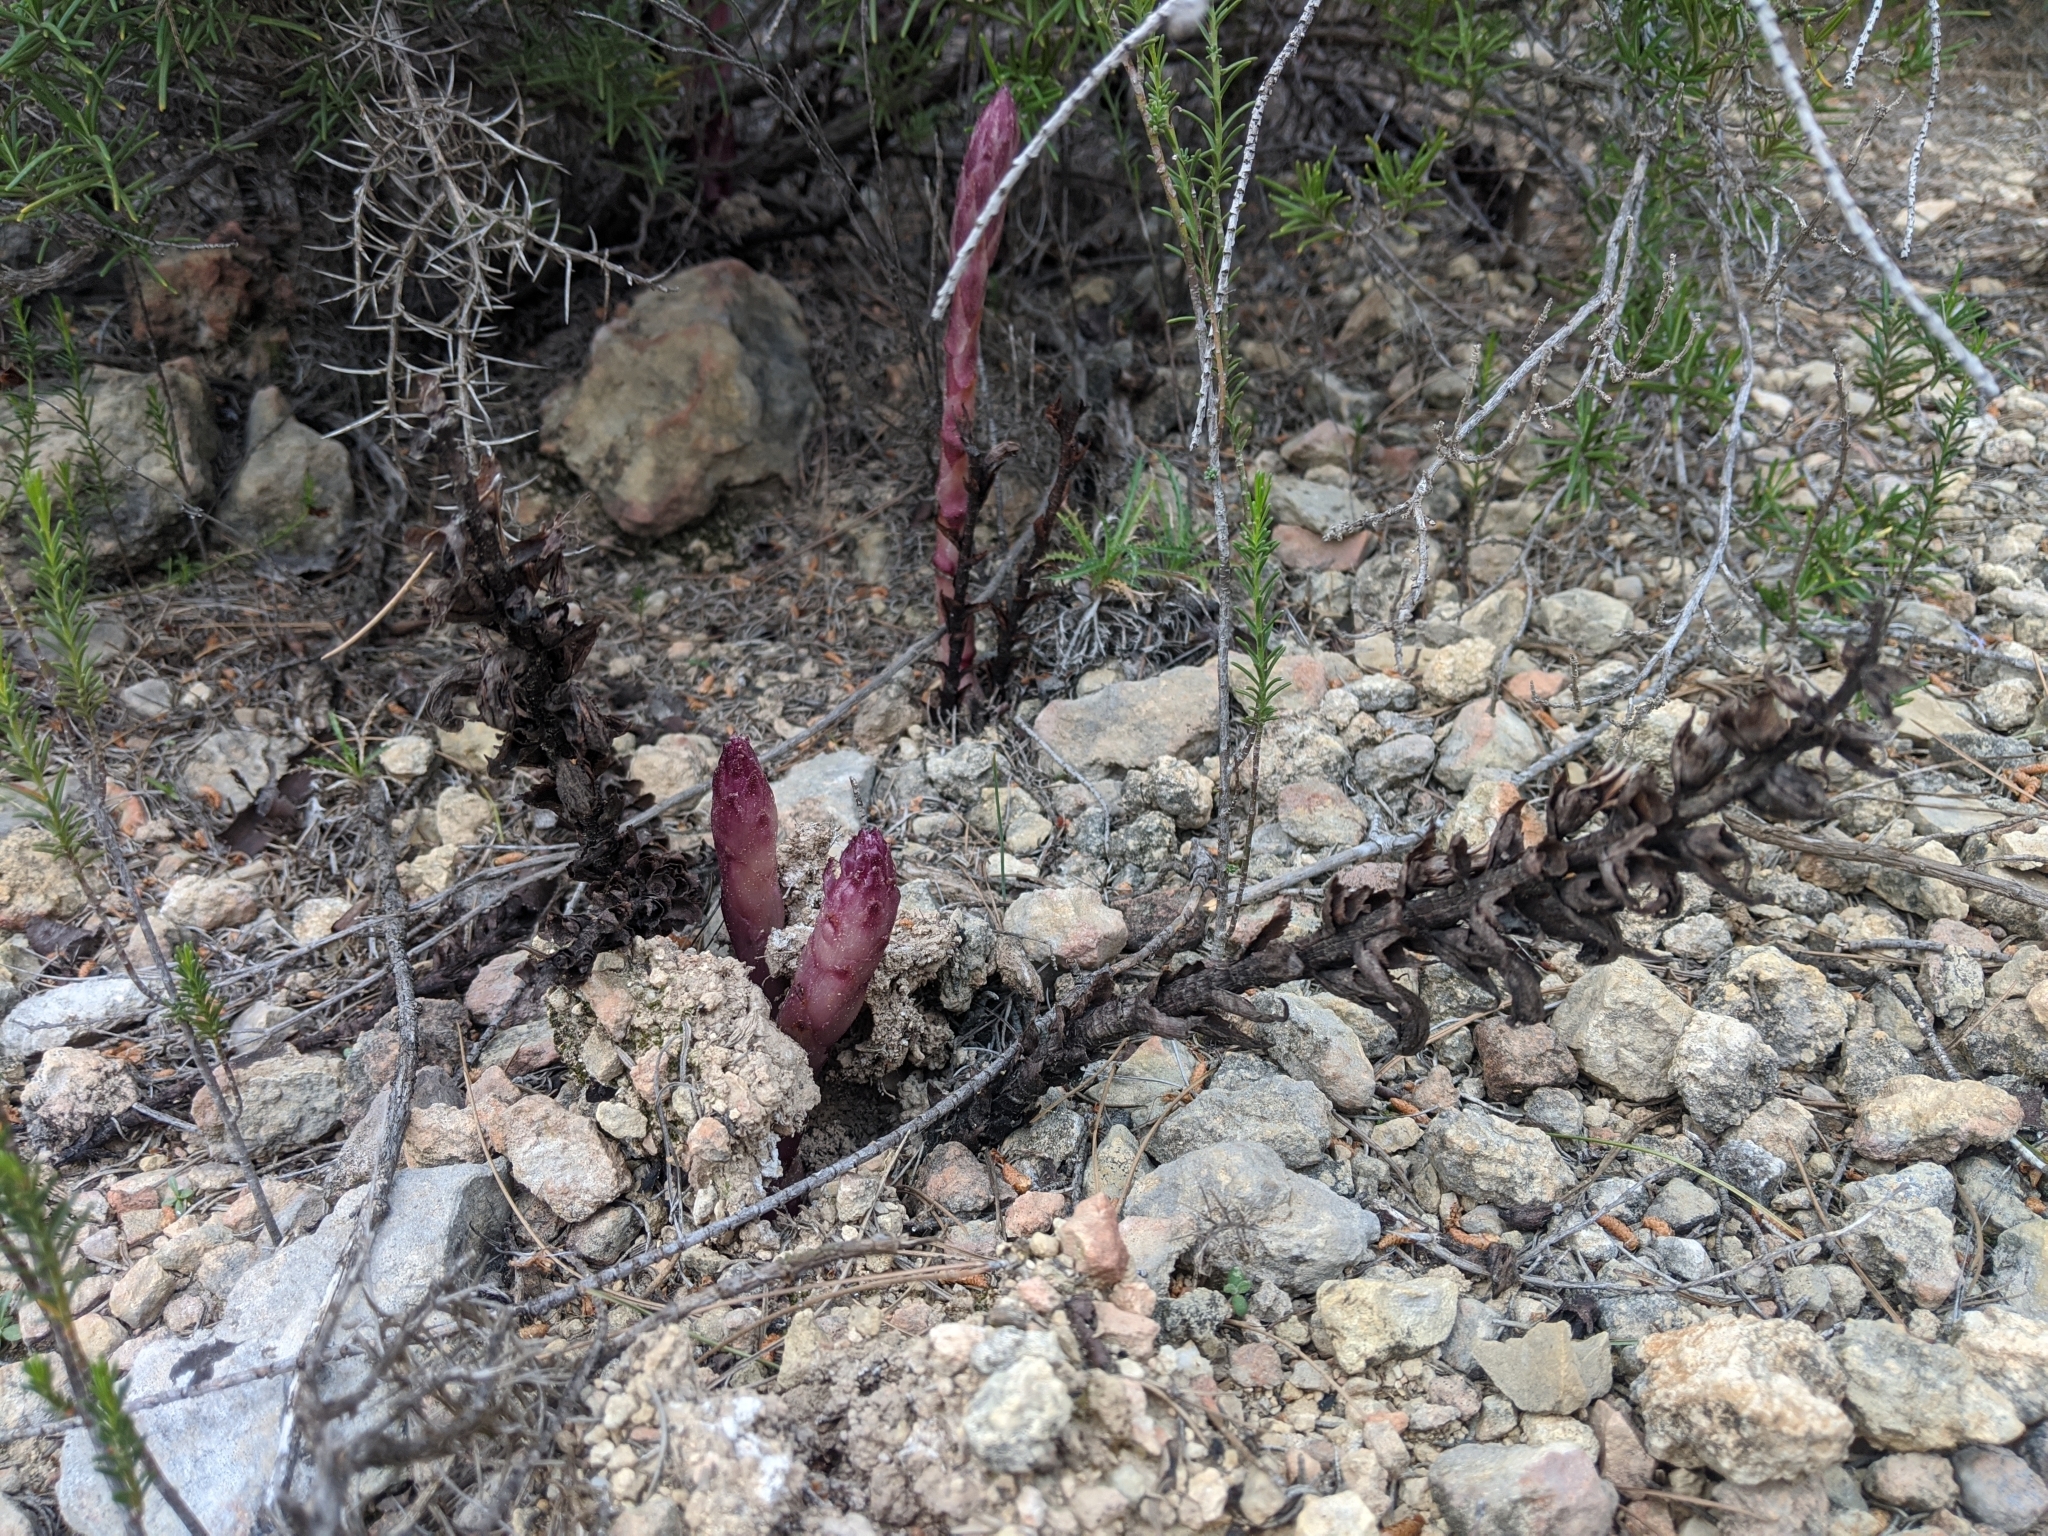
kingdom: Plantae
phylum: Tracheophyta
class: Magnoliopsida
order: Lamiales
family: Orobanchaceae
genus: Boulardia
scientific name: Boulardia latisquama
